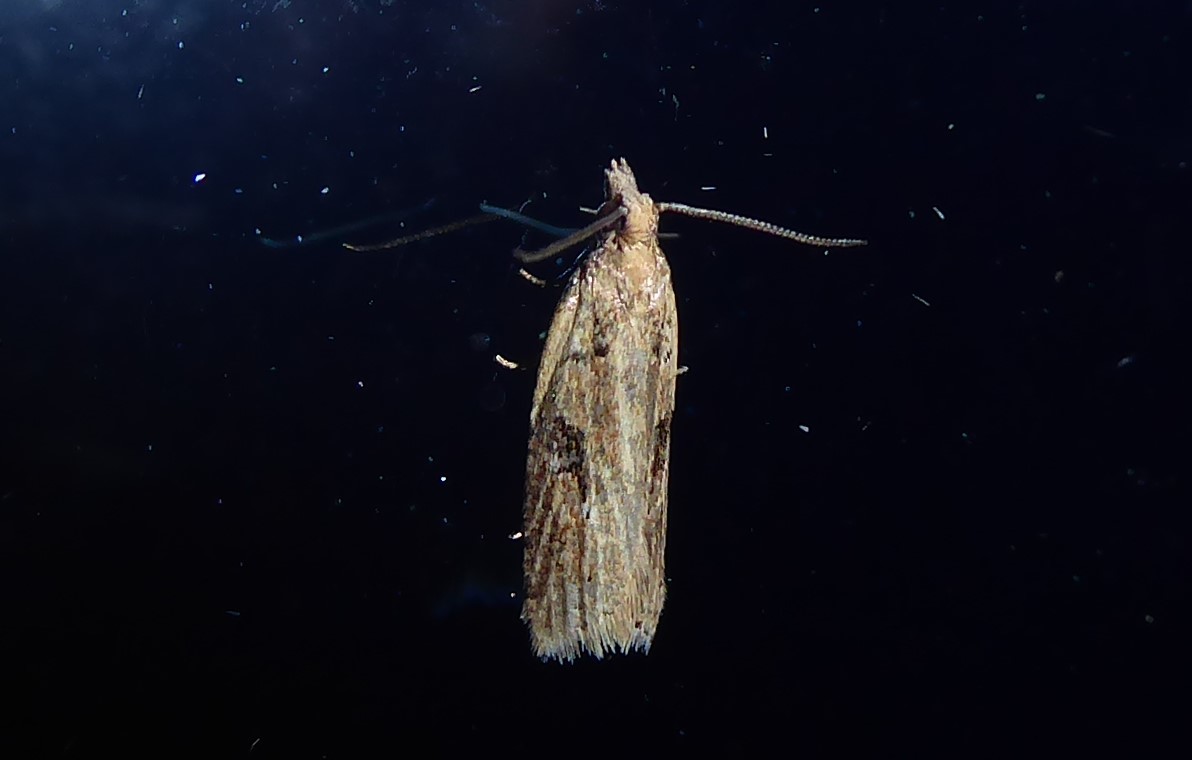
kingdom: Animalia
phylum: Arthropoda
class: Insecta
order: Lepidoptera
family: Tortricidae
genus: Capua
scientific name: Capua semiferana
